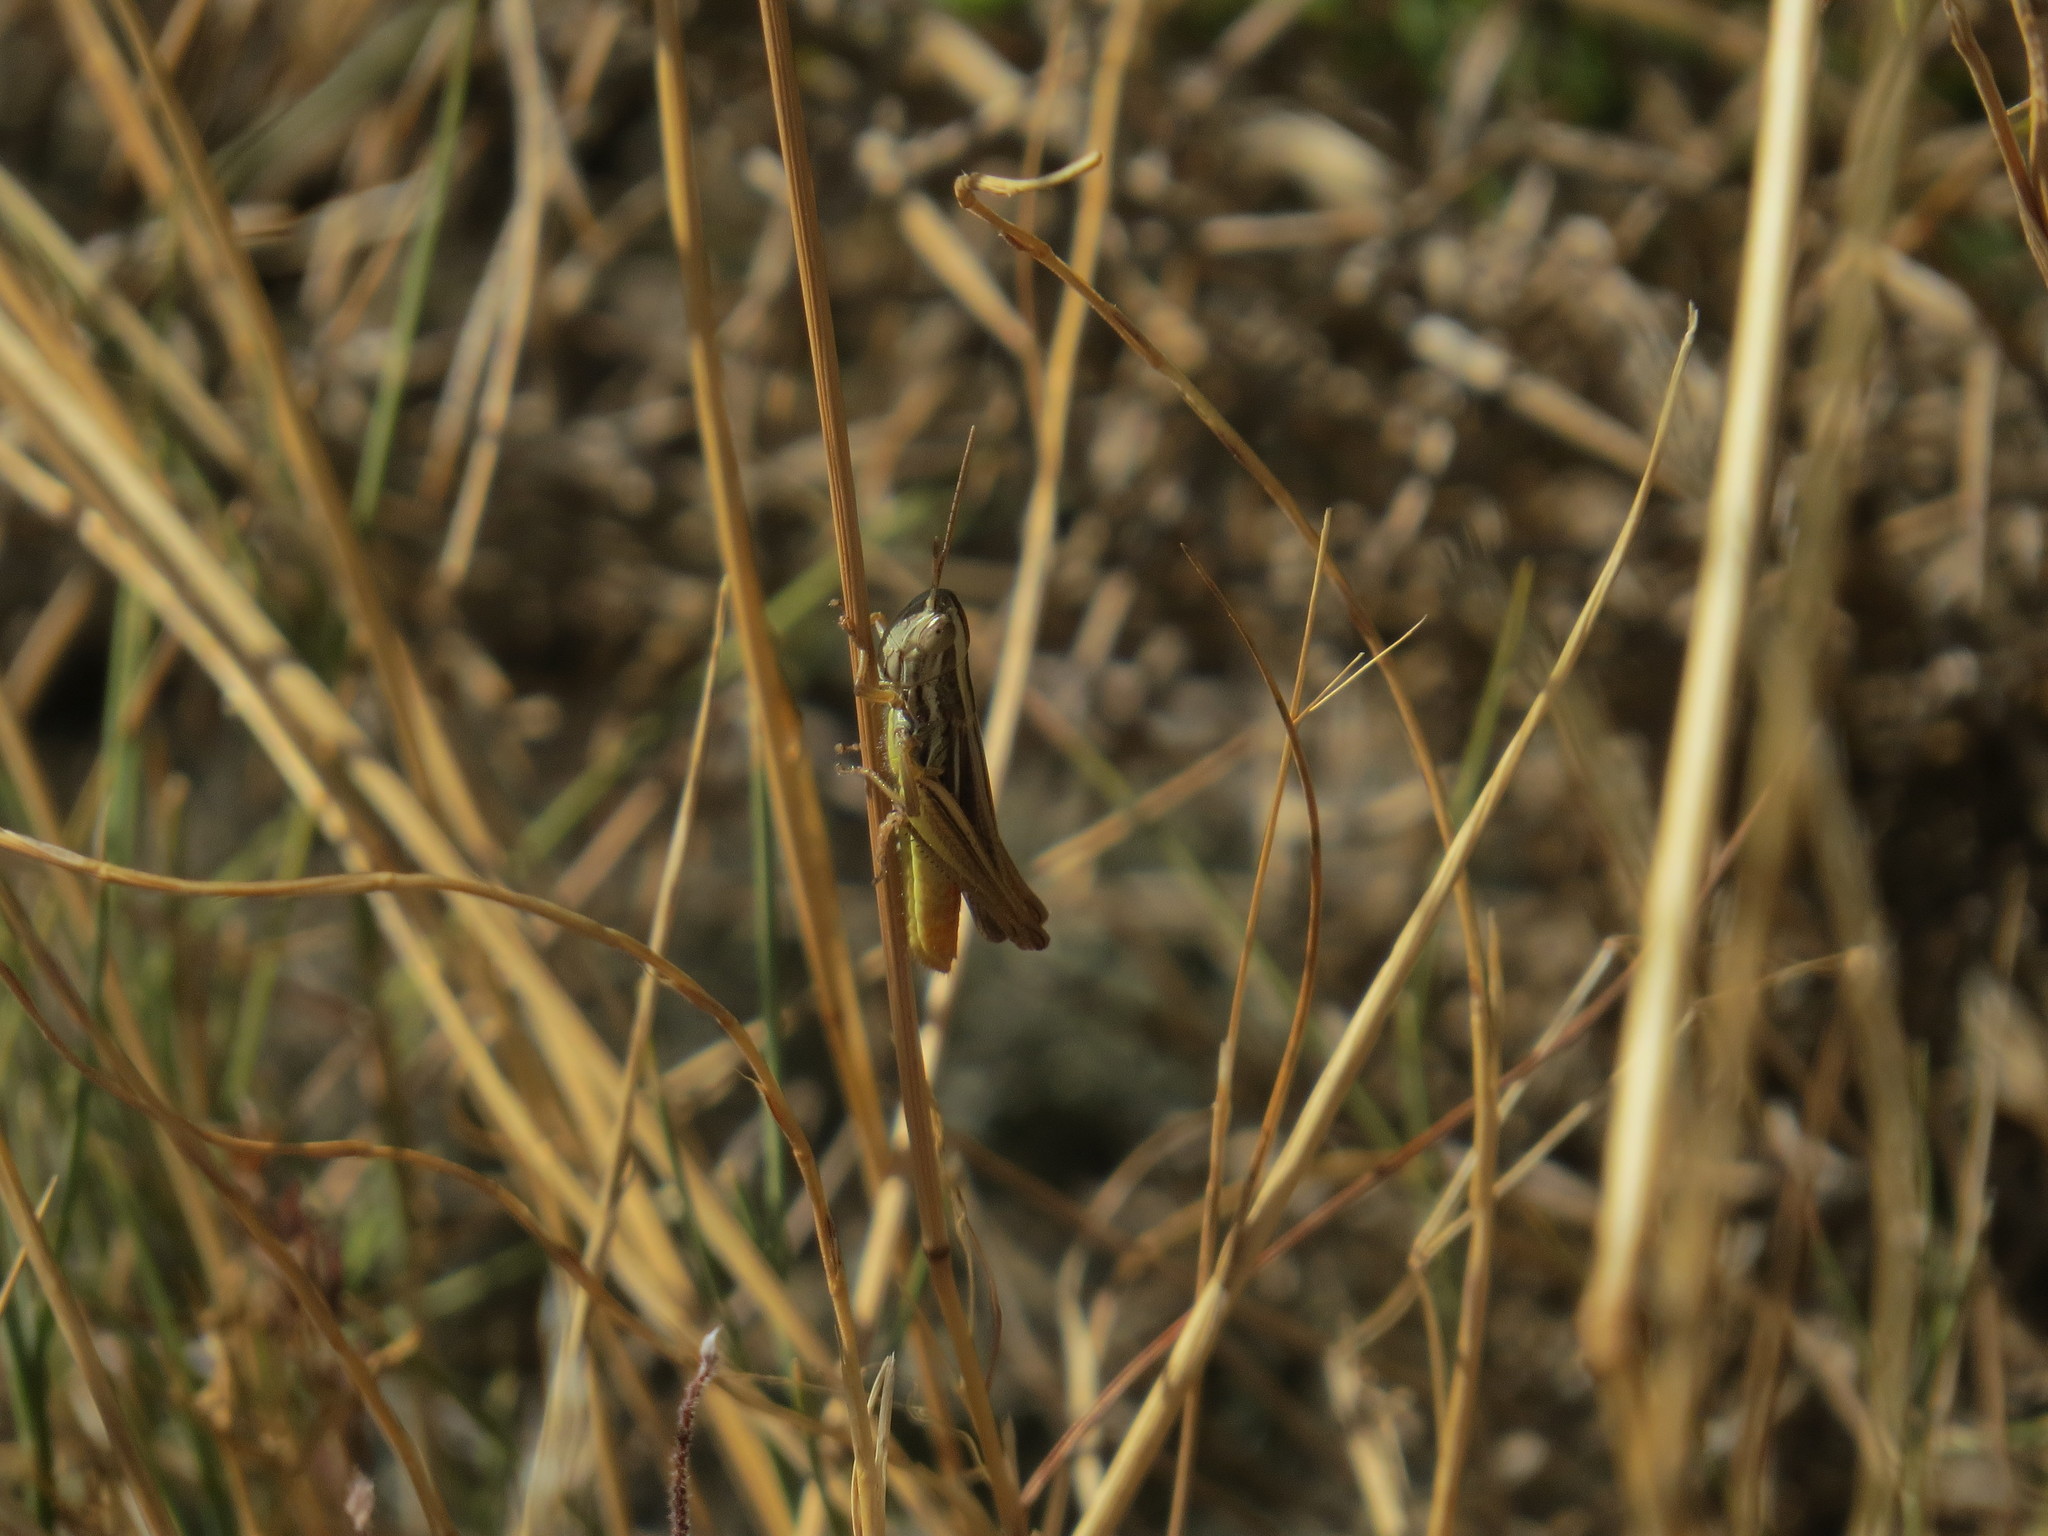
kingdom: Animalia
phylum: Arthropoda
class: Insecta
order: Orthoptera
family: Acrididae
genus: Euchorthippus
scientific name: Euchorthippus chopardi
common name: Iberian straw grasshopper
